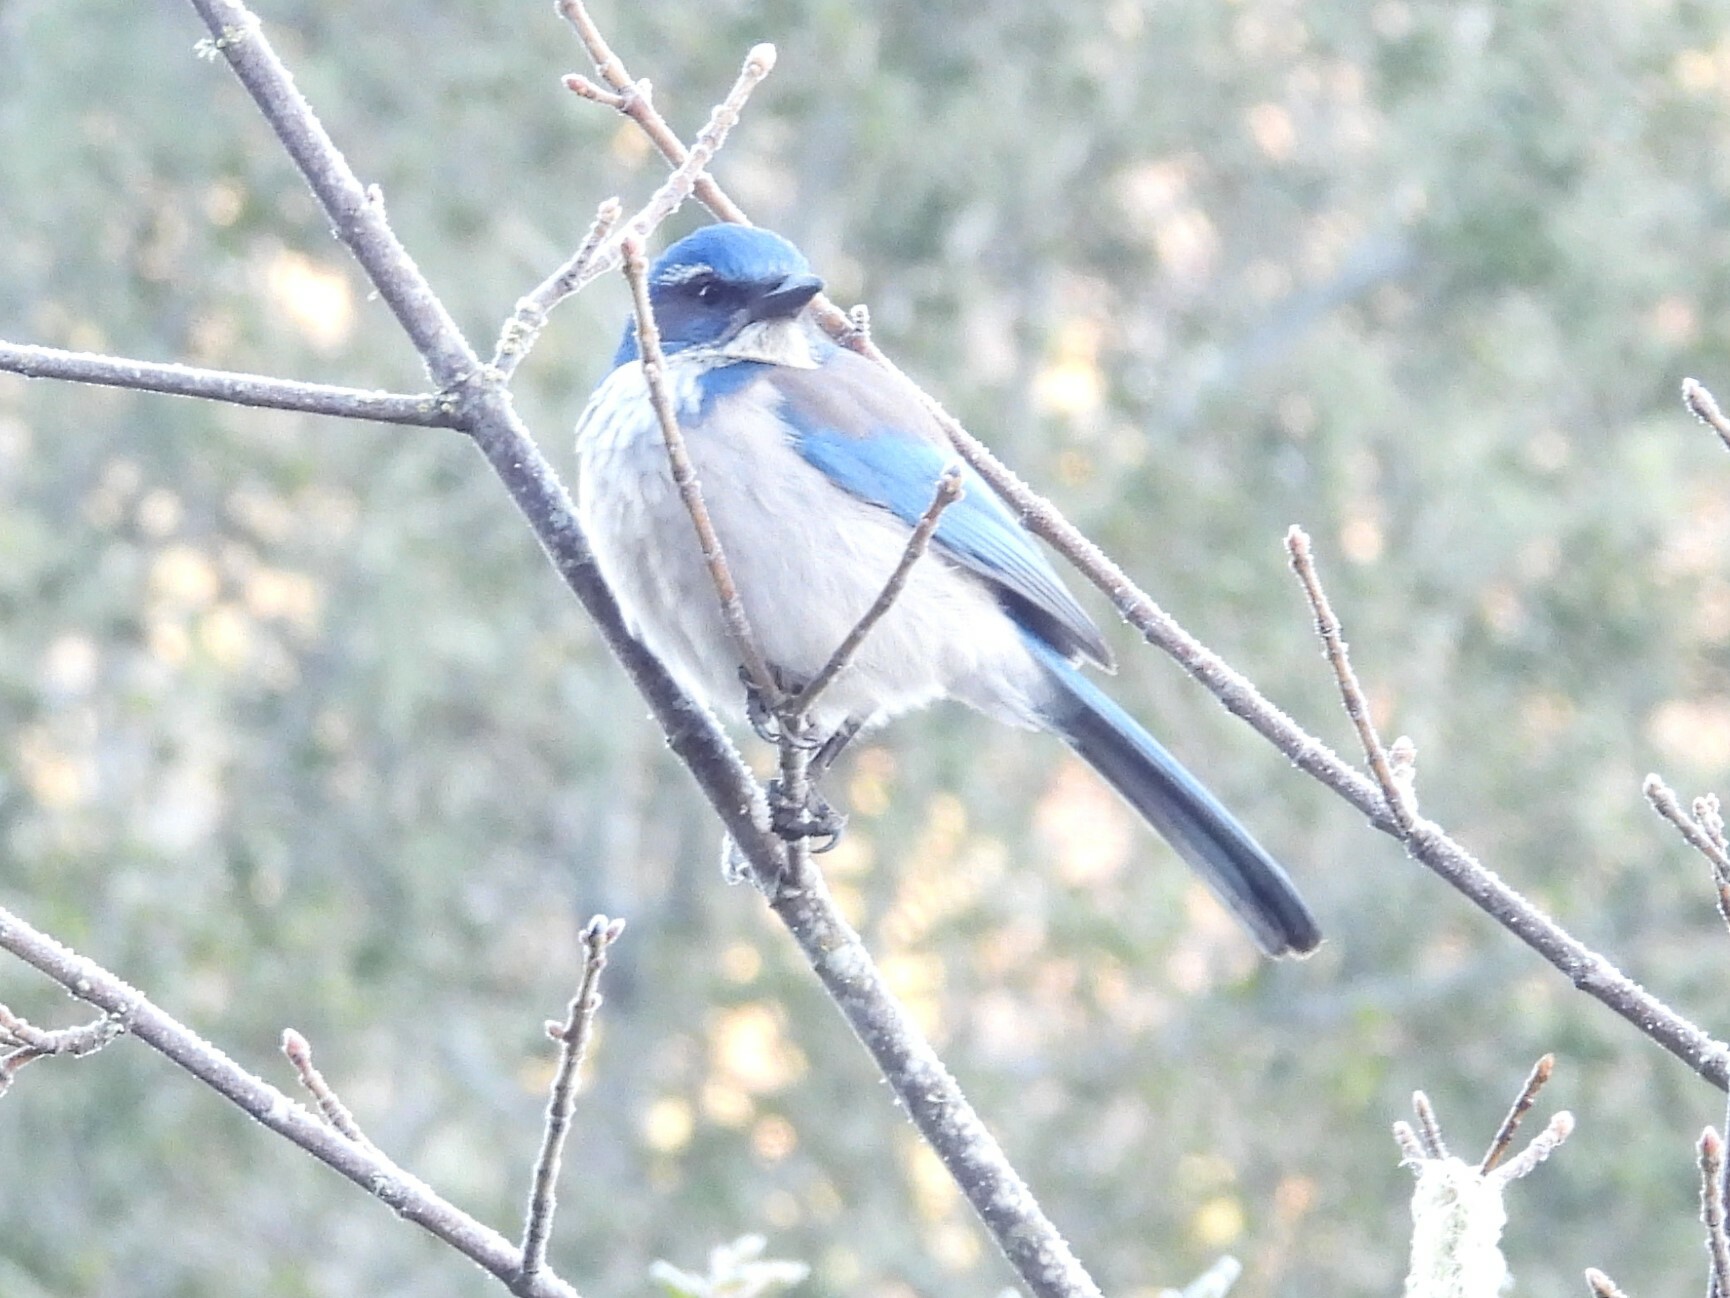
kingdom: Animalia
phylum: Chordata
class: Aves
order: Passeriformes
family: Corvidae
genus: Aphelocoma
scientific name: Aphelocoma californica
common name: California scrub-jay
